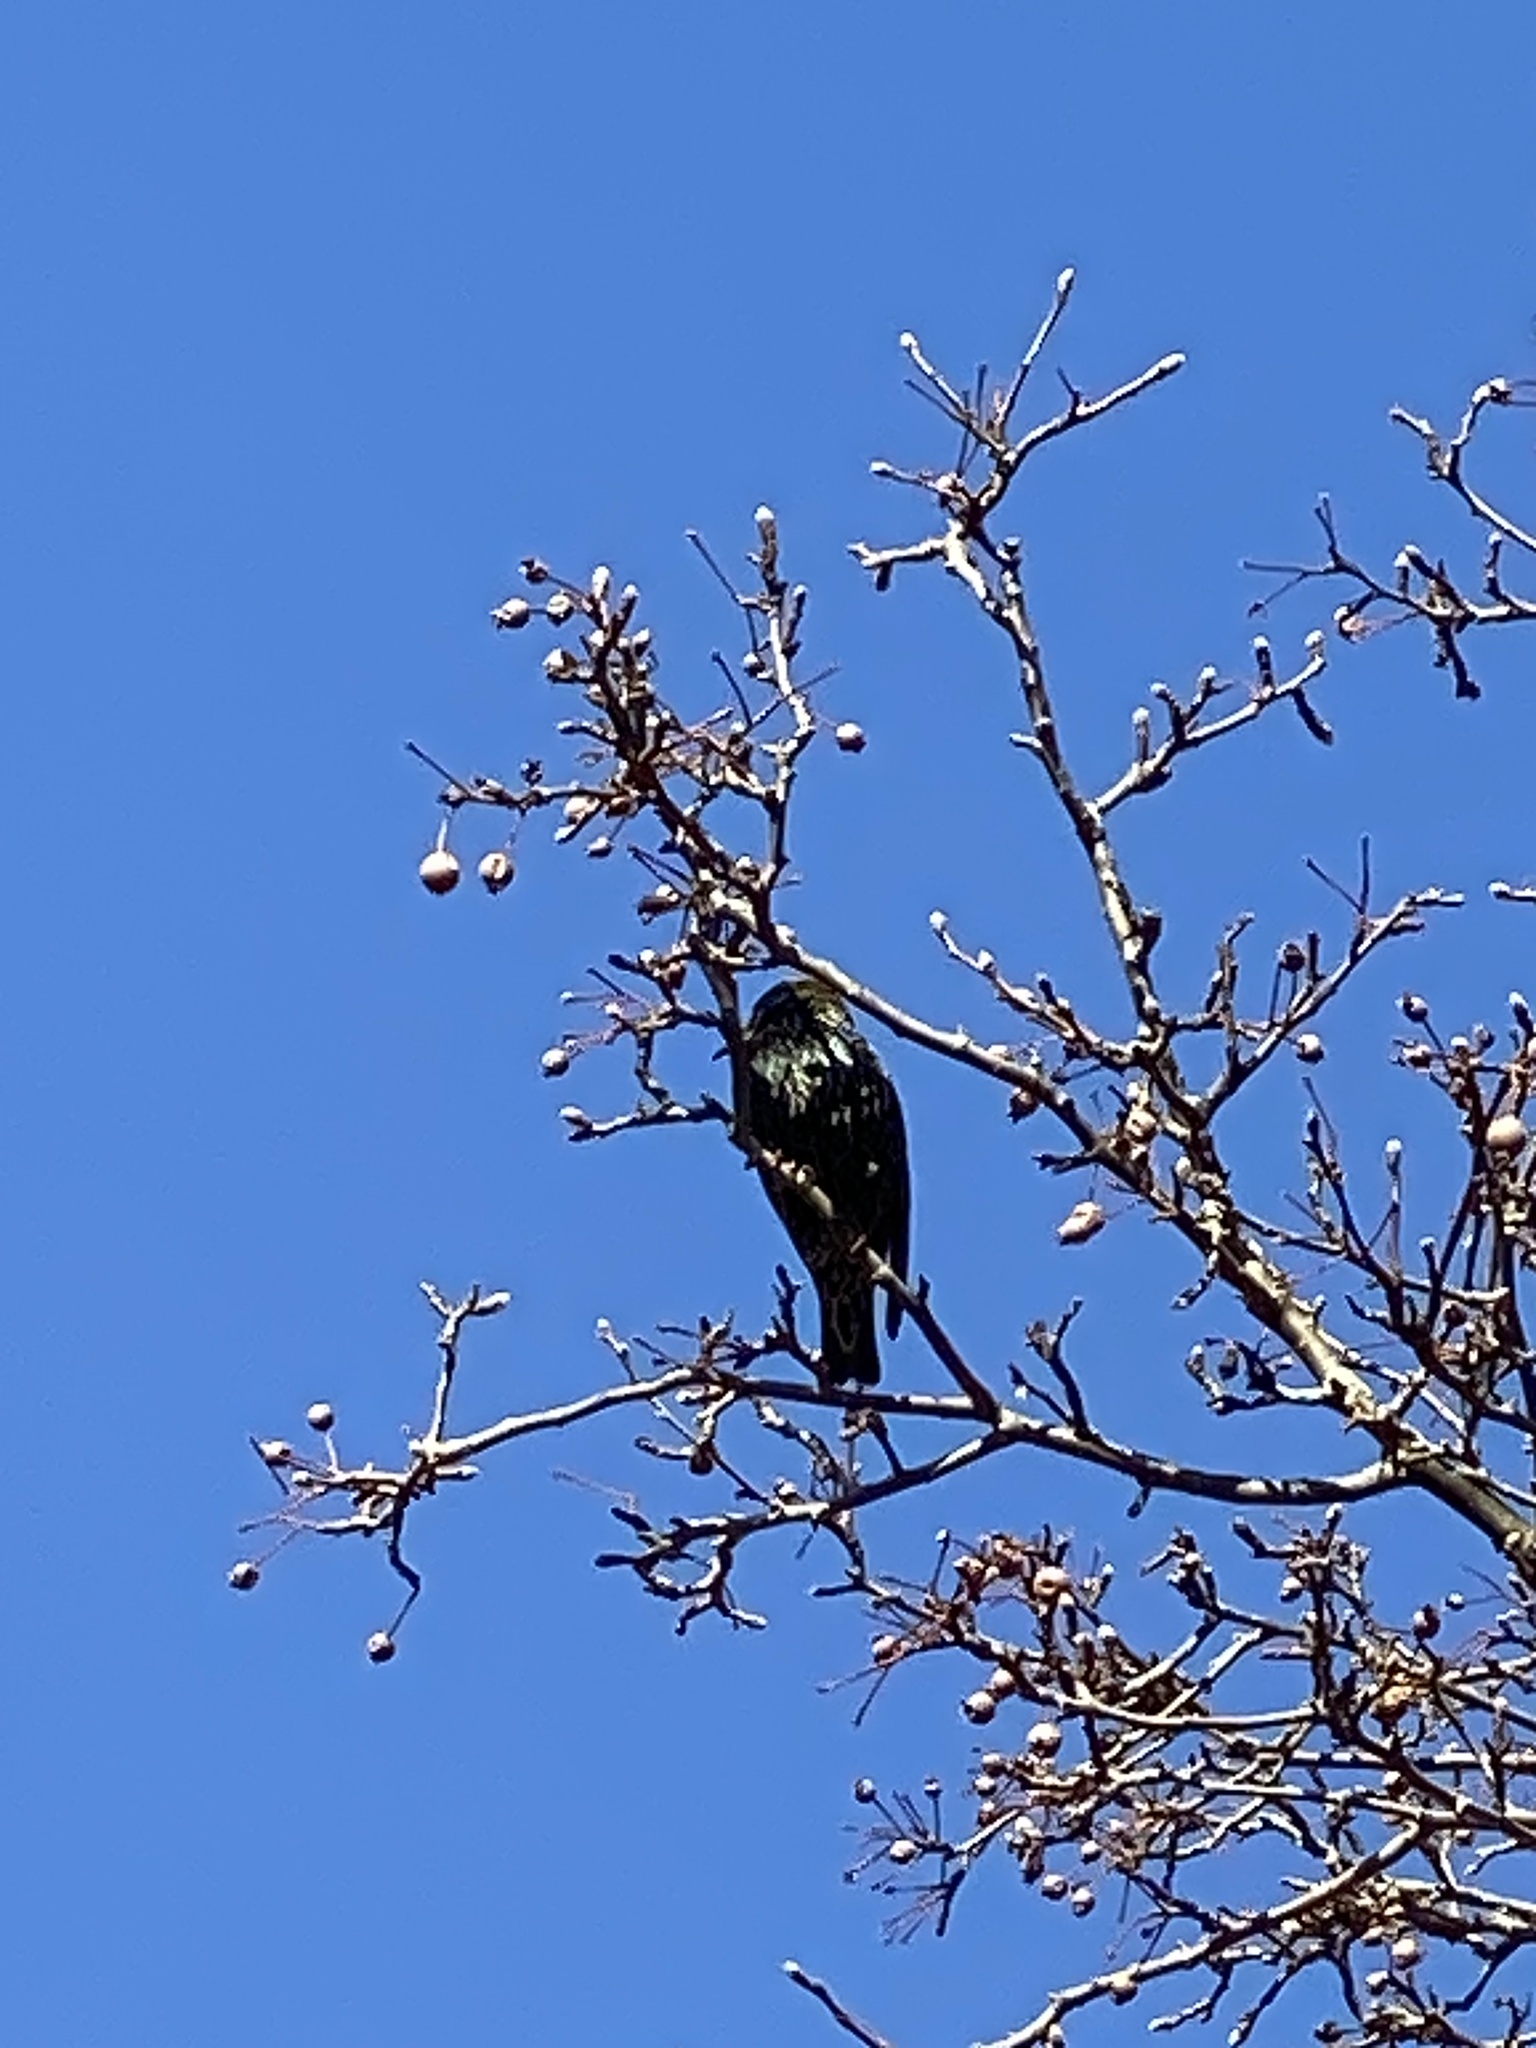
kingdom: Animalia
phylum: Chordata
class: Aves
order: Passeriformes
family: Sturnidae
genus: Sturnus
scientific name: Sturnus vulgaris
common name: Common starling
